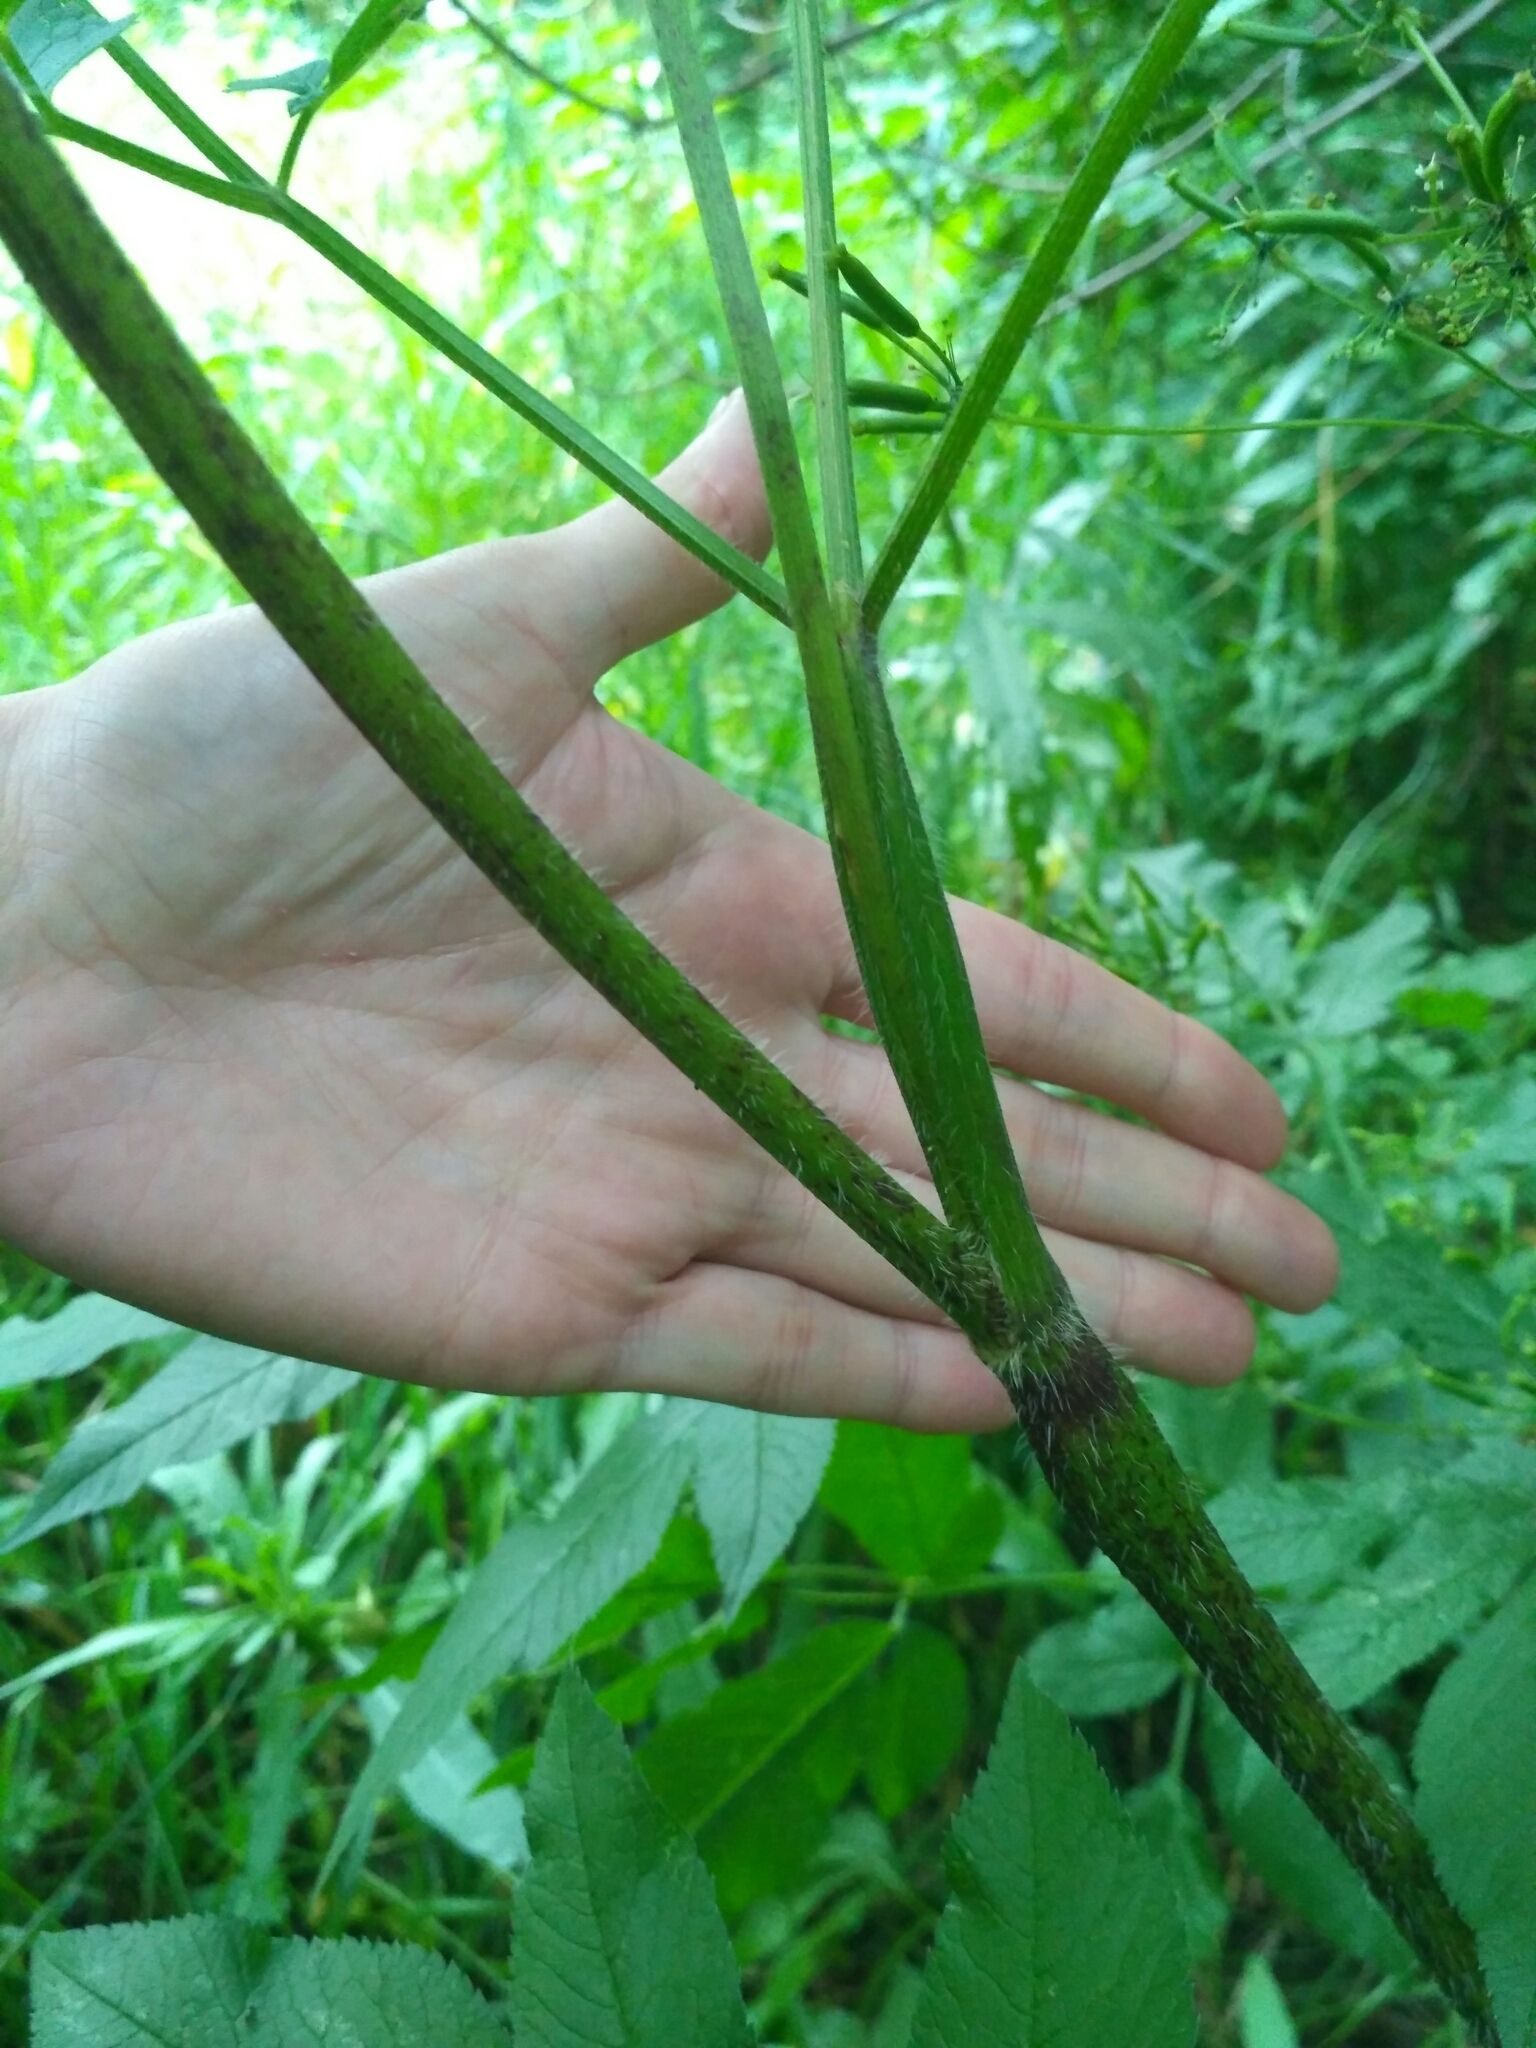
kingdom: Plantae
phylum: Tracheophyta
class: Magnoliopsida
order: Apiales
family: Apiaceae
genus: Chaerophyllum
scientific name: Chaerophyllum aromaticum
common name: Broadleaf chervil
